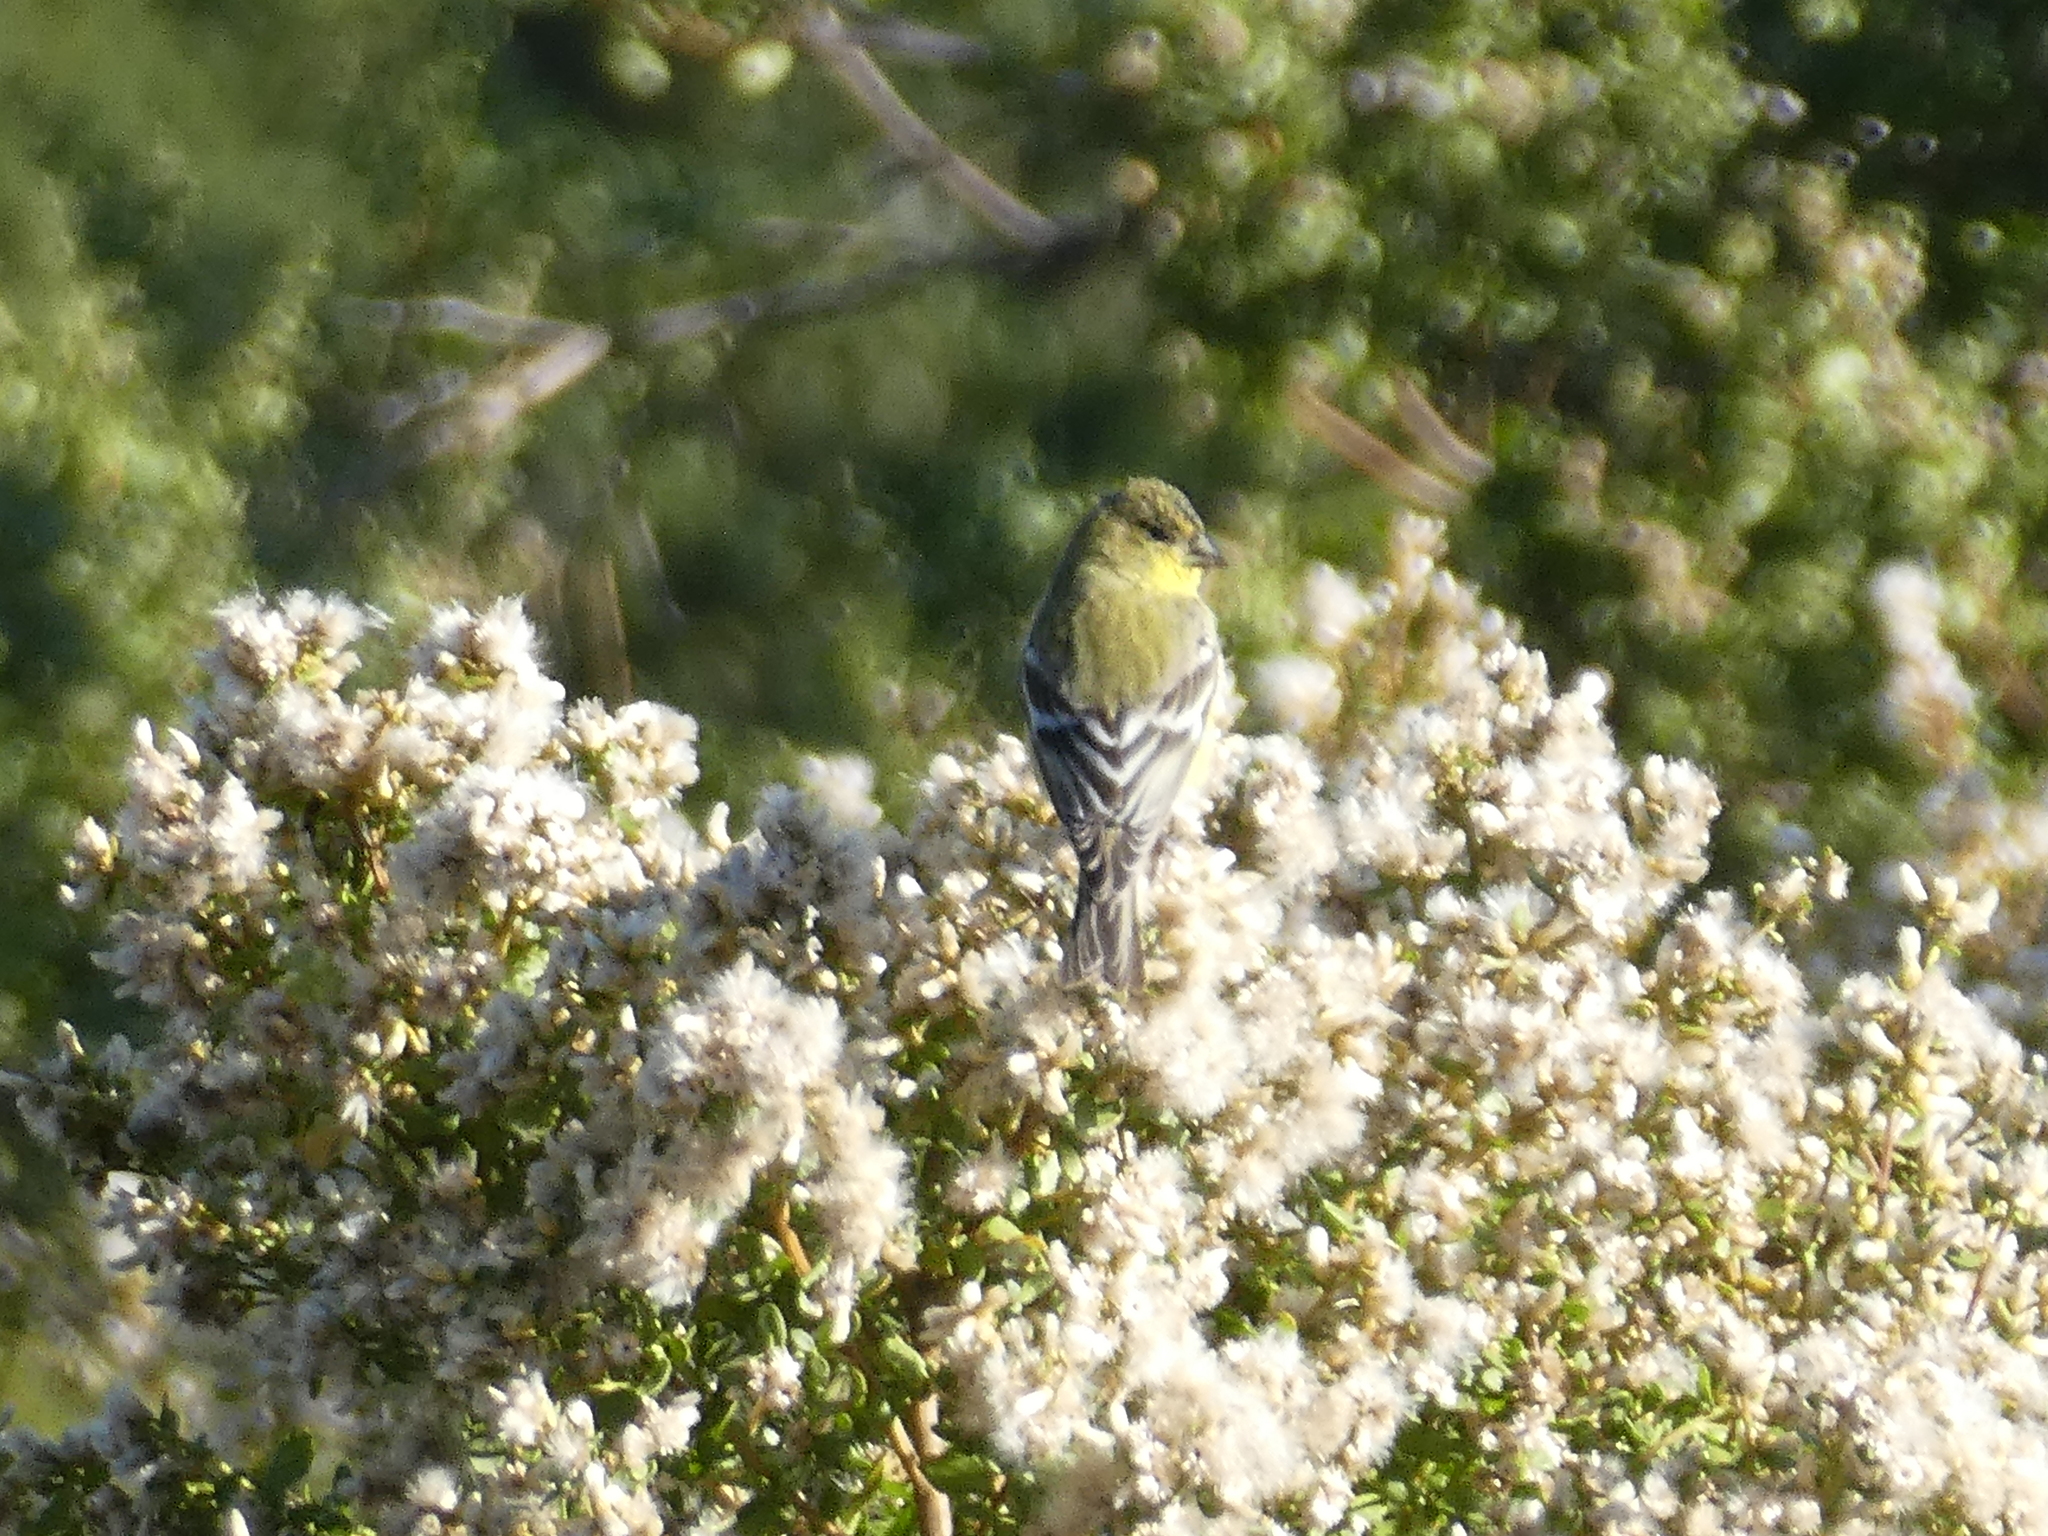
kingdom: Animalia
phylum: Chordata
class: Aves
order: Passeriformes
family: Fringillidae
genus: Spinus
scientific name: Spinus psaltria
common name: Lesser goldfinch
